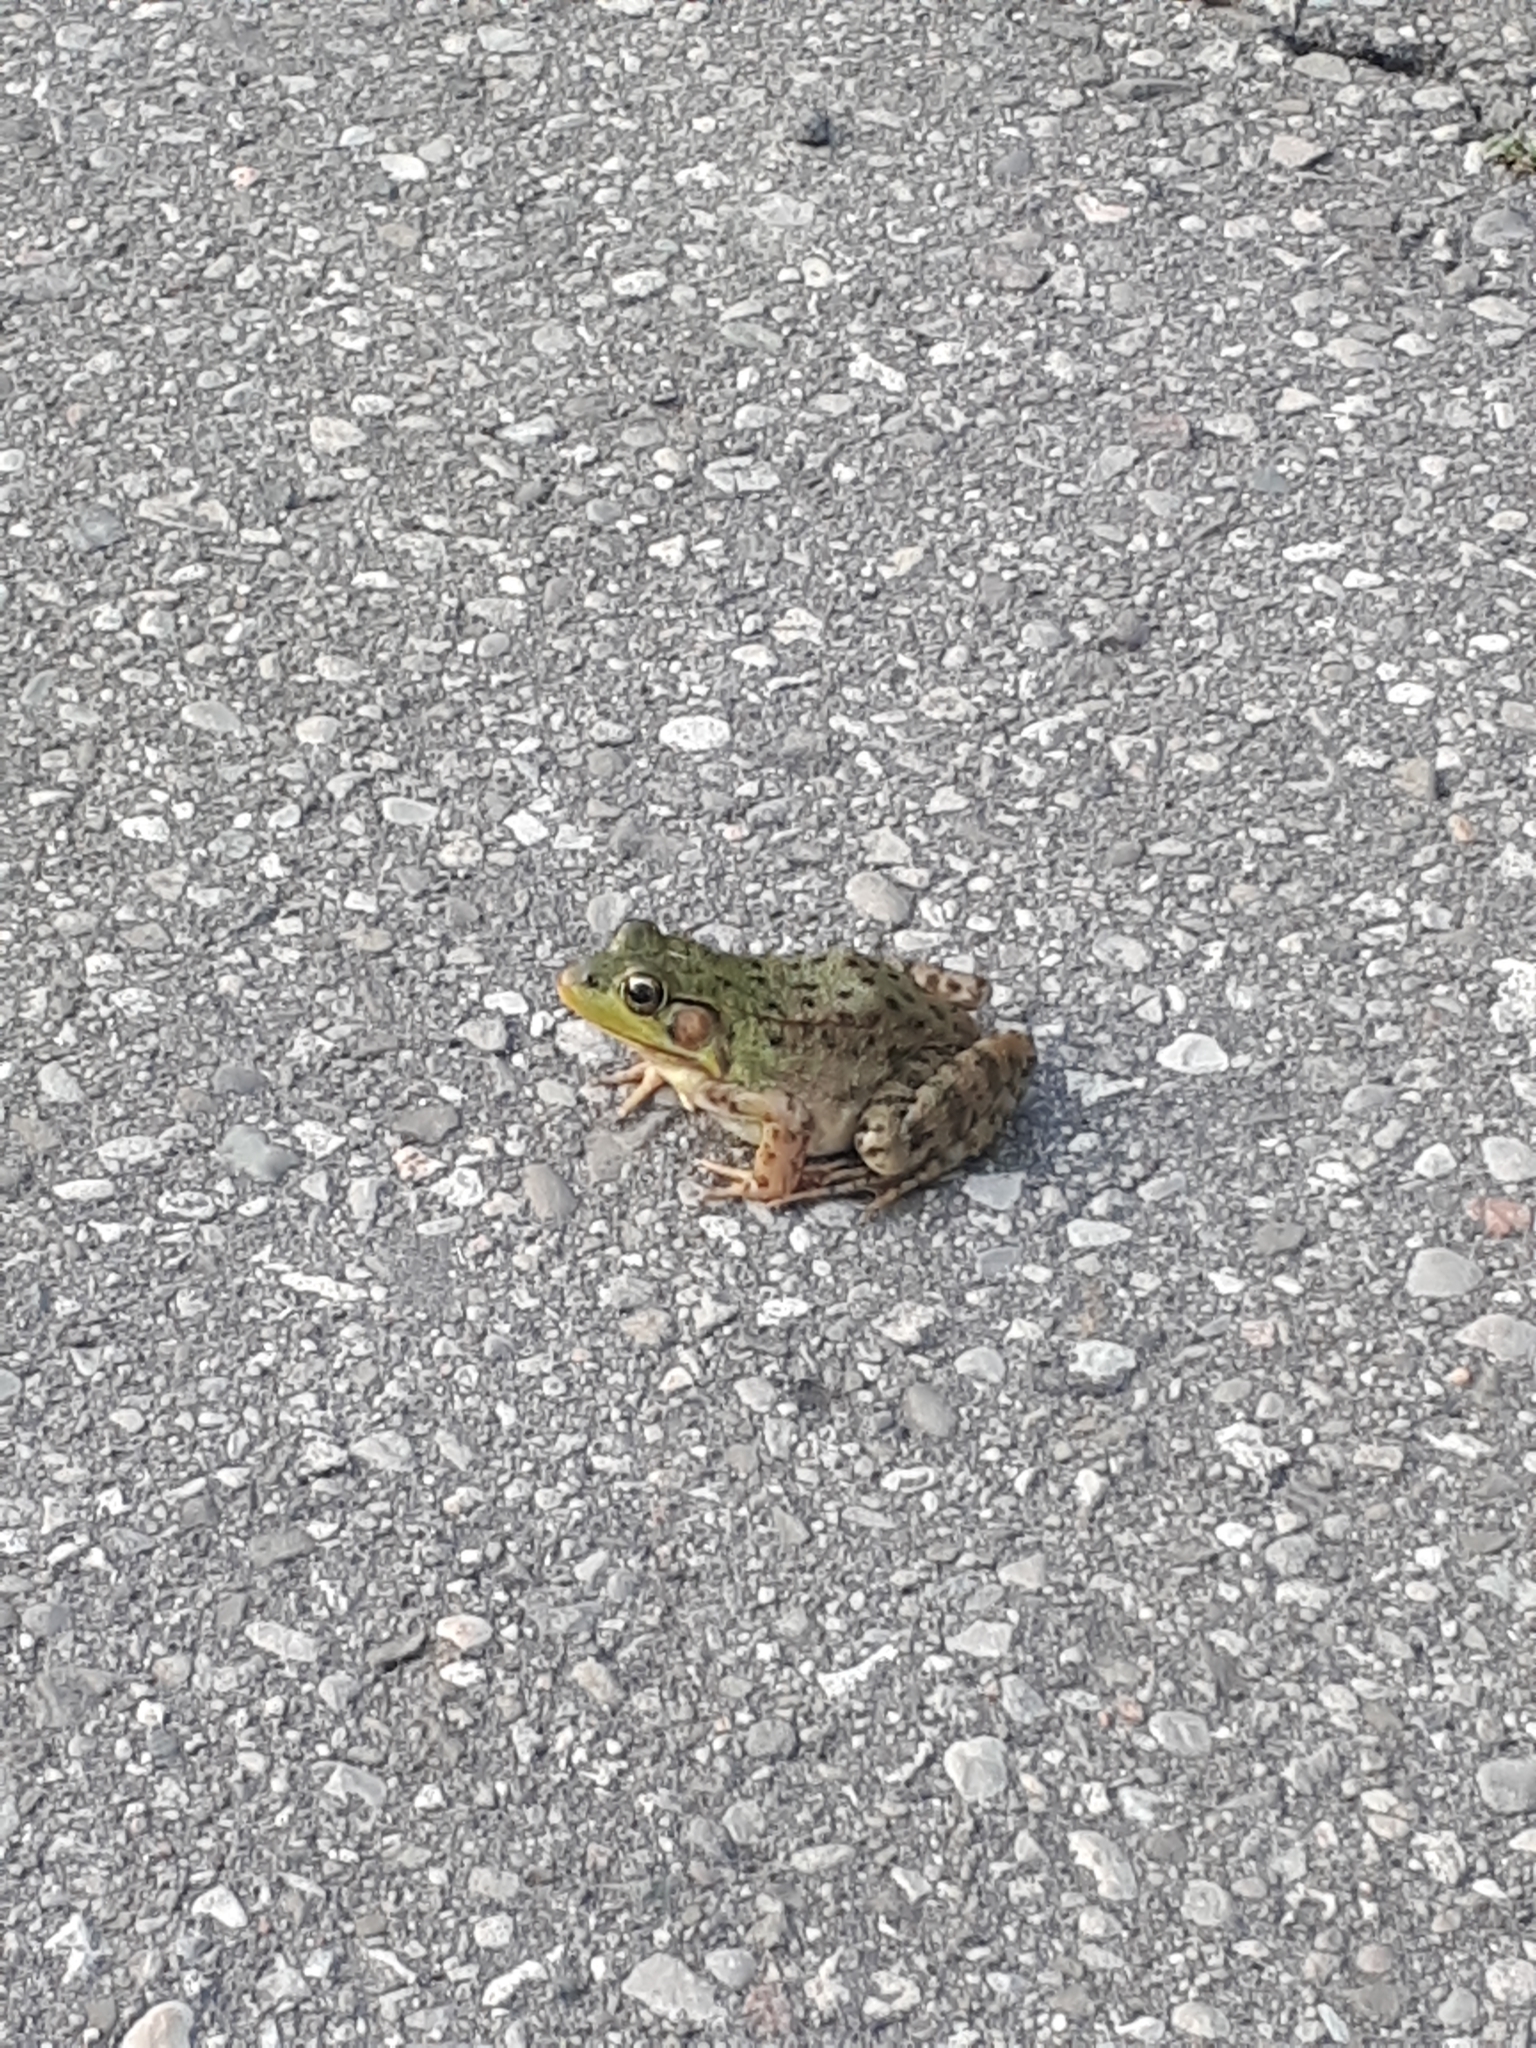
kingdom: Animalia
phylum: Chordata
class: Amphibia
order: Anura
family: Ranidae
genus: Lithobates
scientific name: Lithobates clamitans
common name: Green frog
